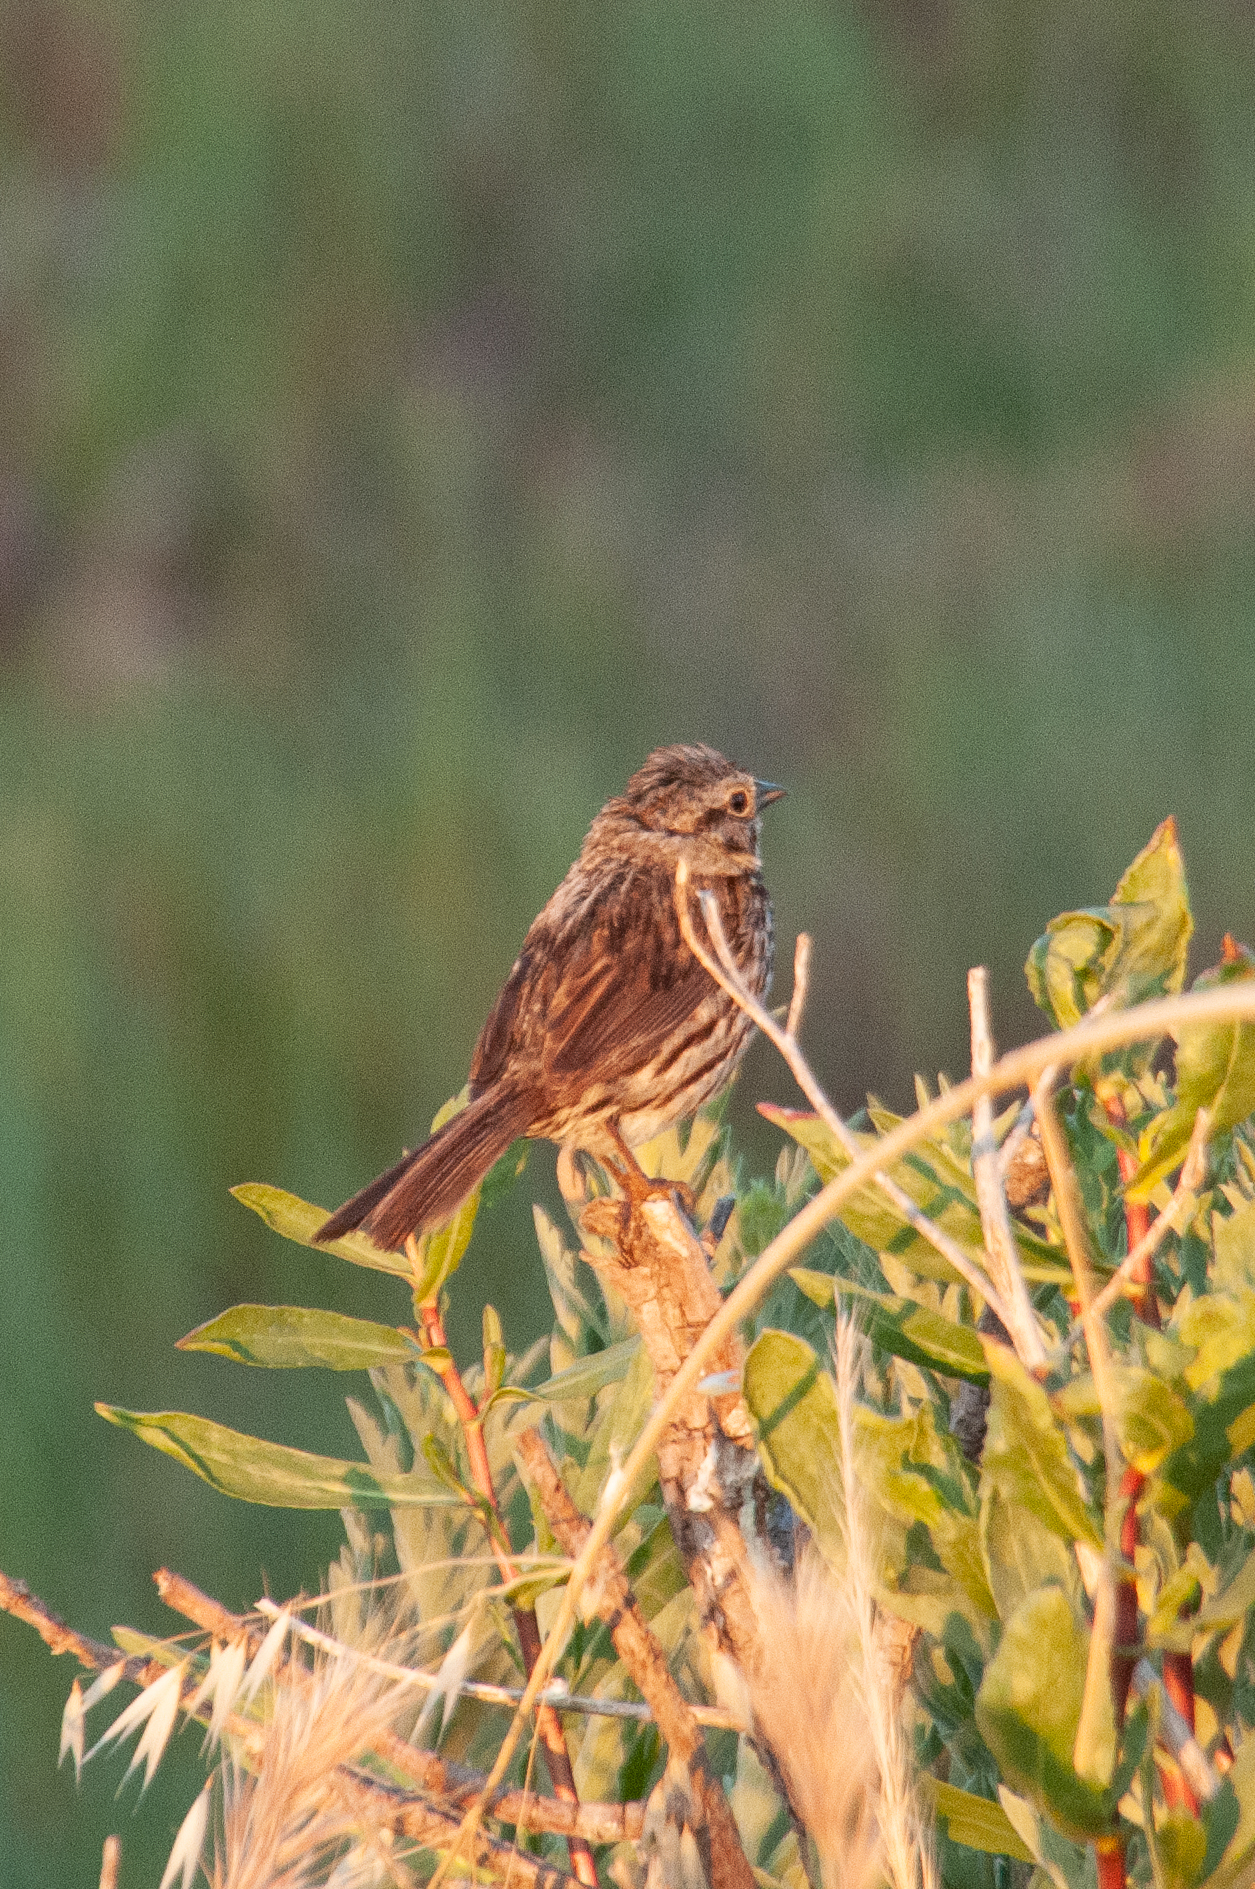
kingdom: Animalia
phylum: Chordata
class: Aves
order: Passeriformes
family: Passerellidae
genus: Melospiza
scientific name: Melospiza melodia
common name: Song sparrow
